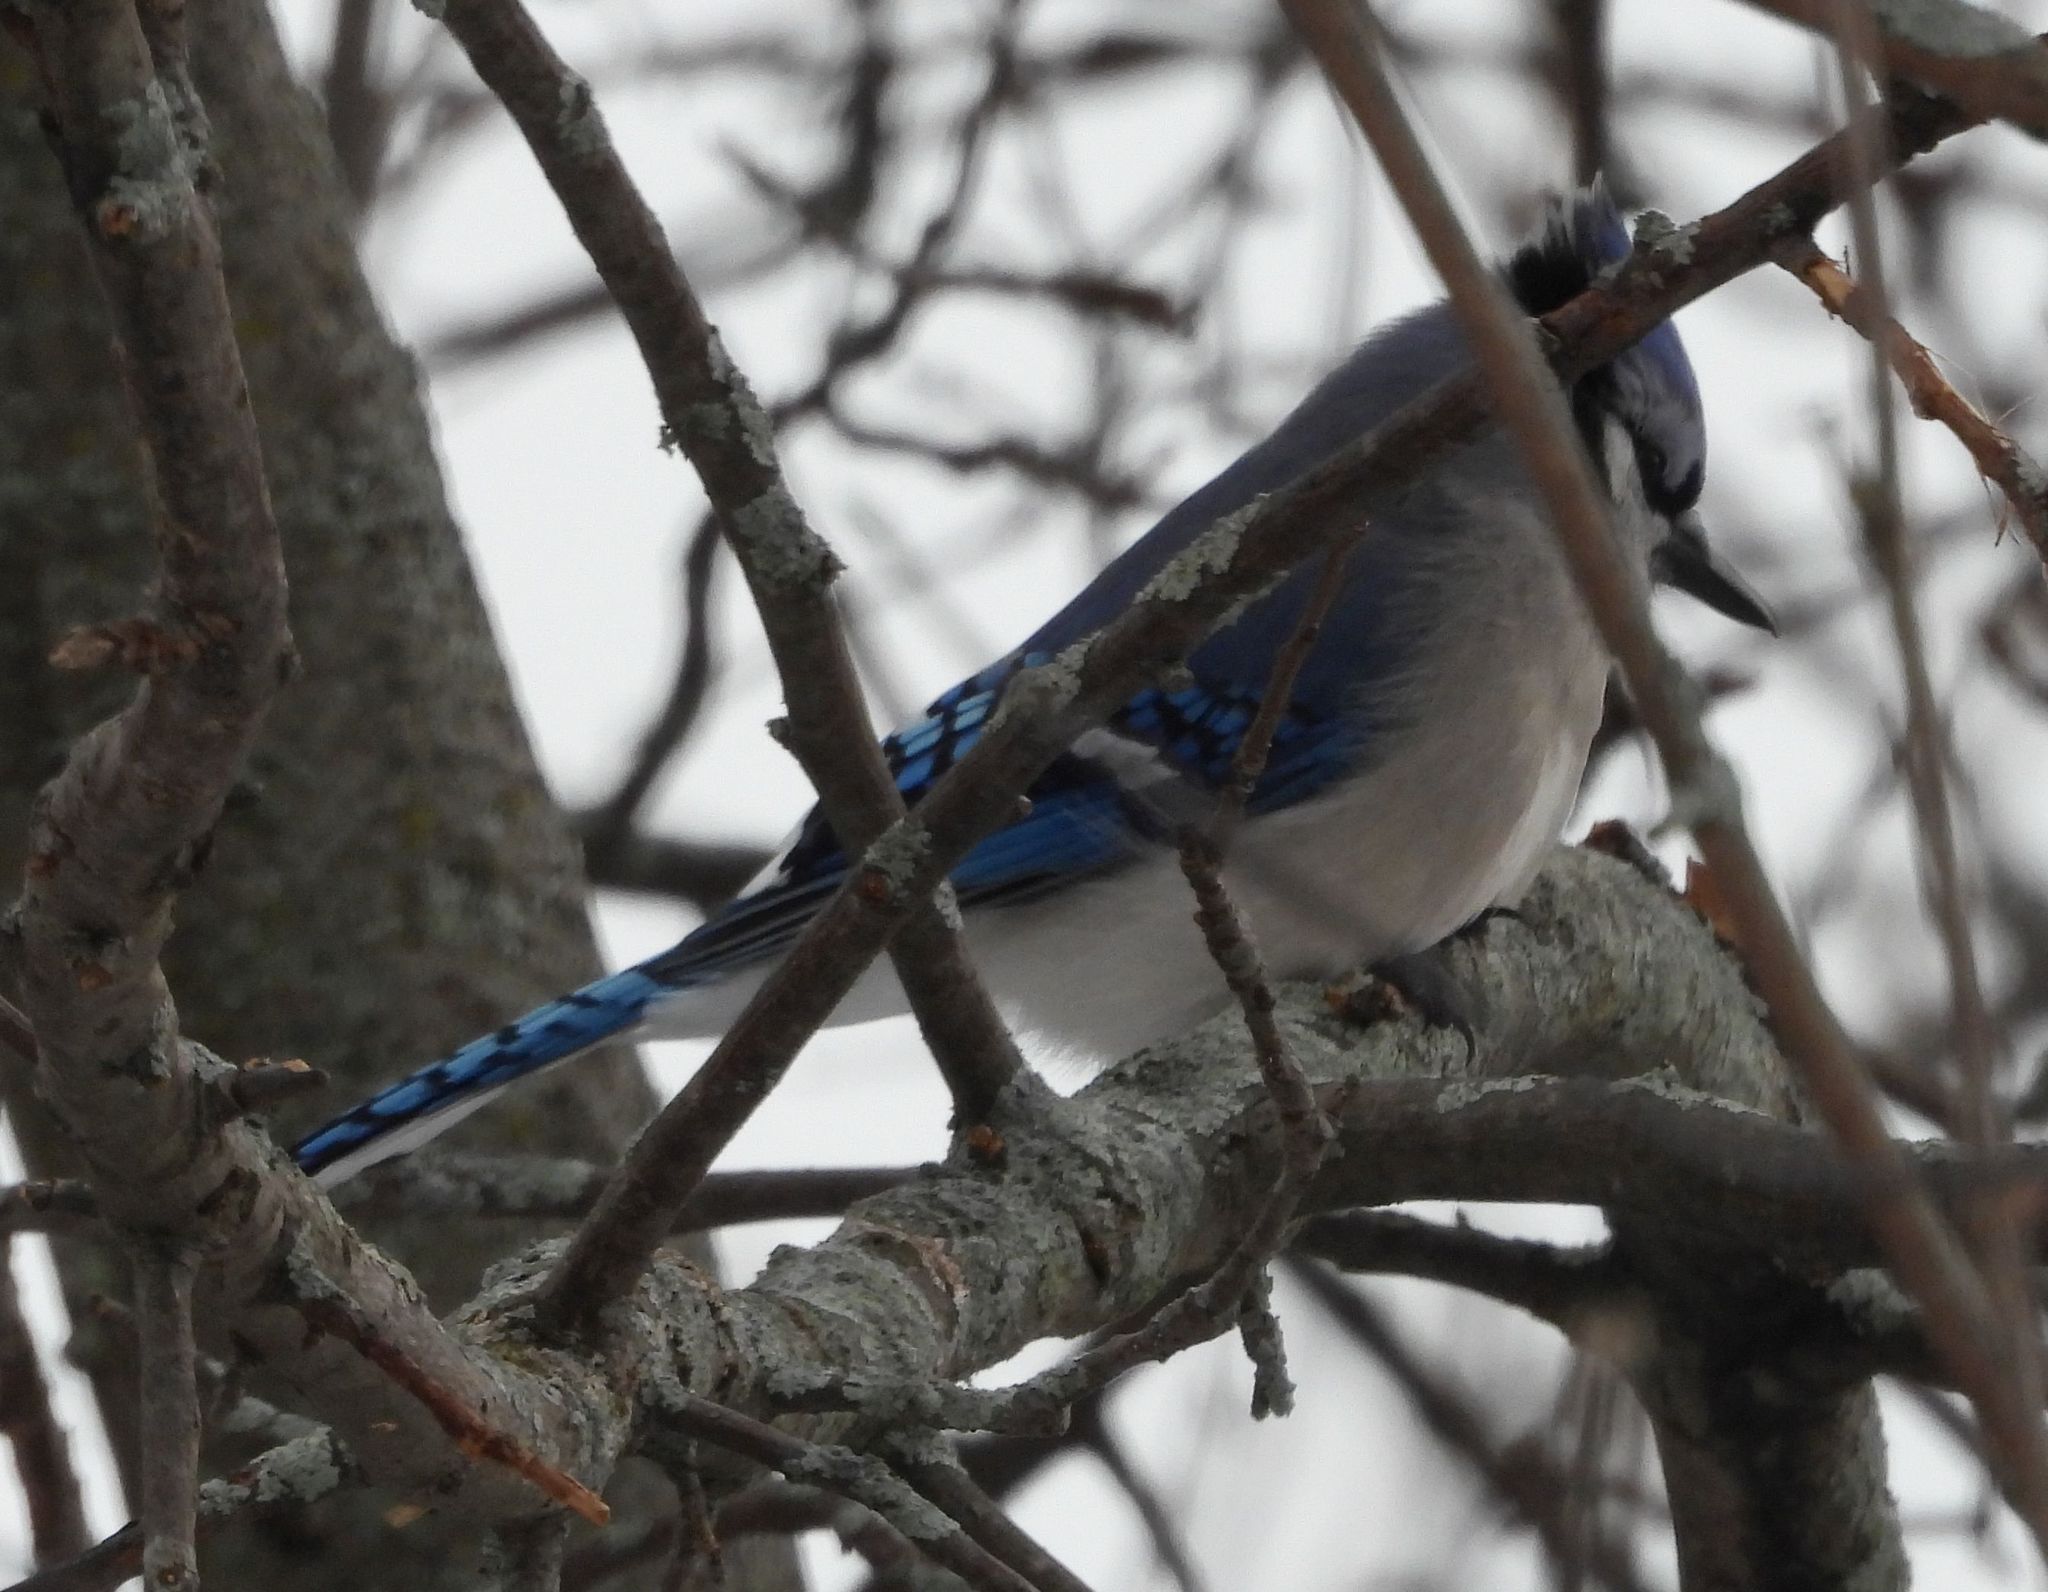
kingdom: Animalia
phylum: Chordata
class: Aves
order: Passeriformes
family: Corvidae
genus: Cyanocitta
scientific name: Cyanocitta cristata
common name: Blue jay
